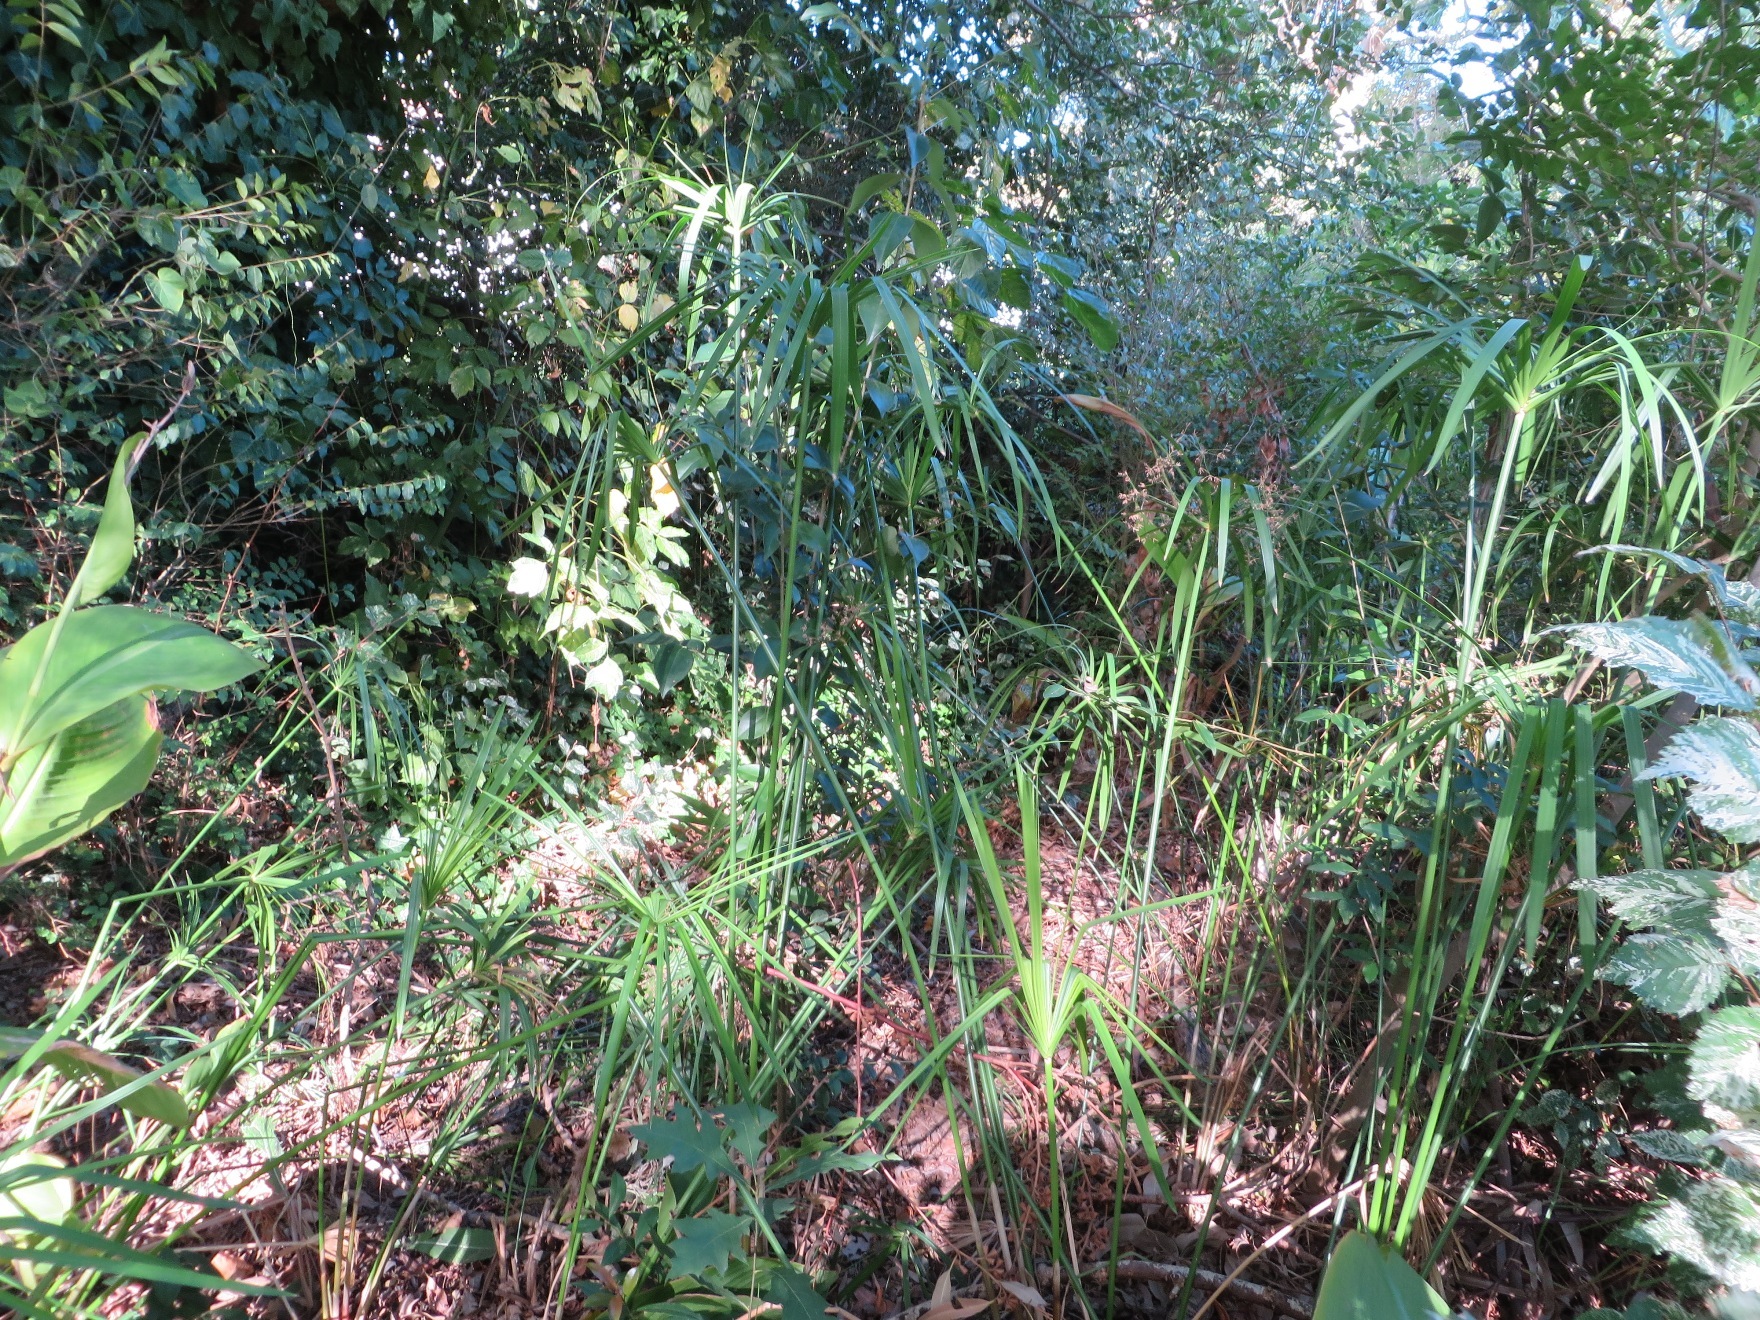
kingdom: Plantae
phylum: Tracheophyta
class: Liliopsida
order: Poales
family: Cyperaceae
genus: Cyperus
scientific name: Cyperus textilis
